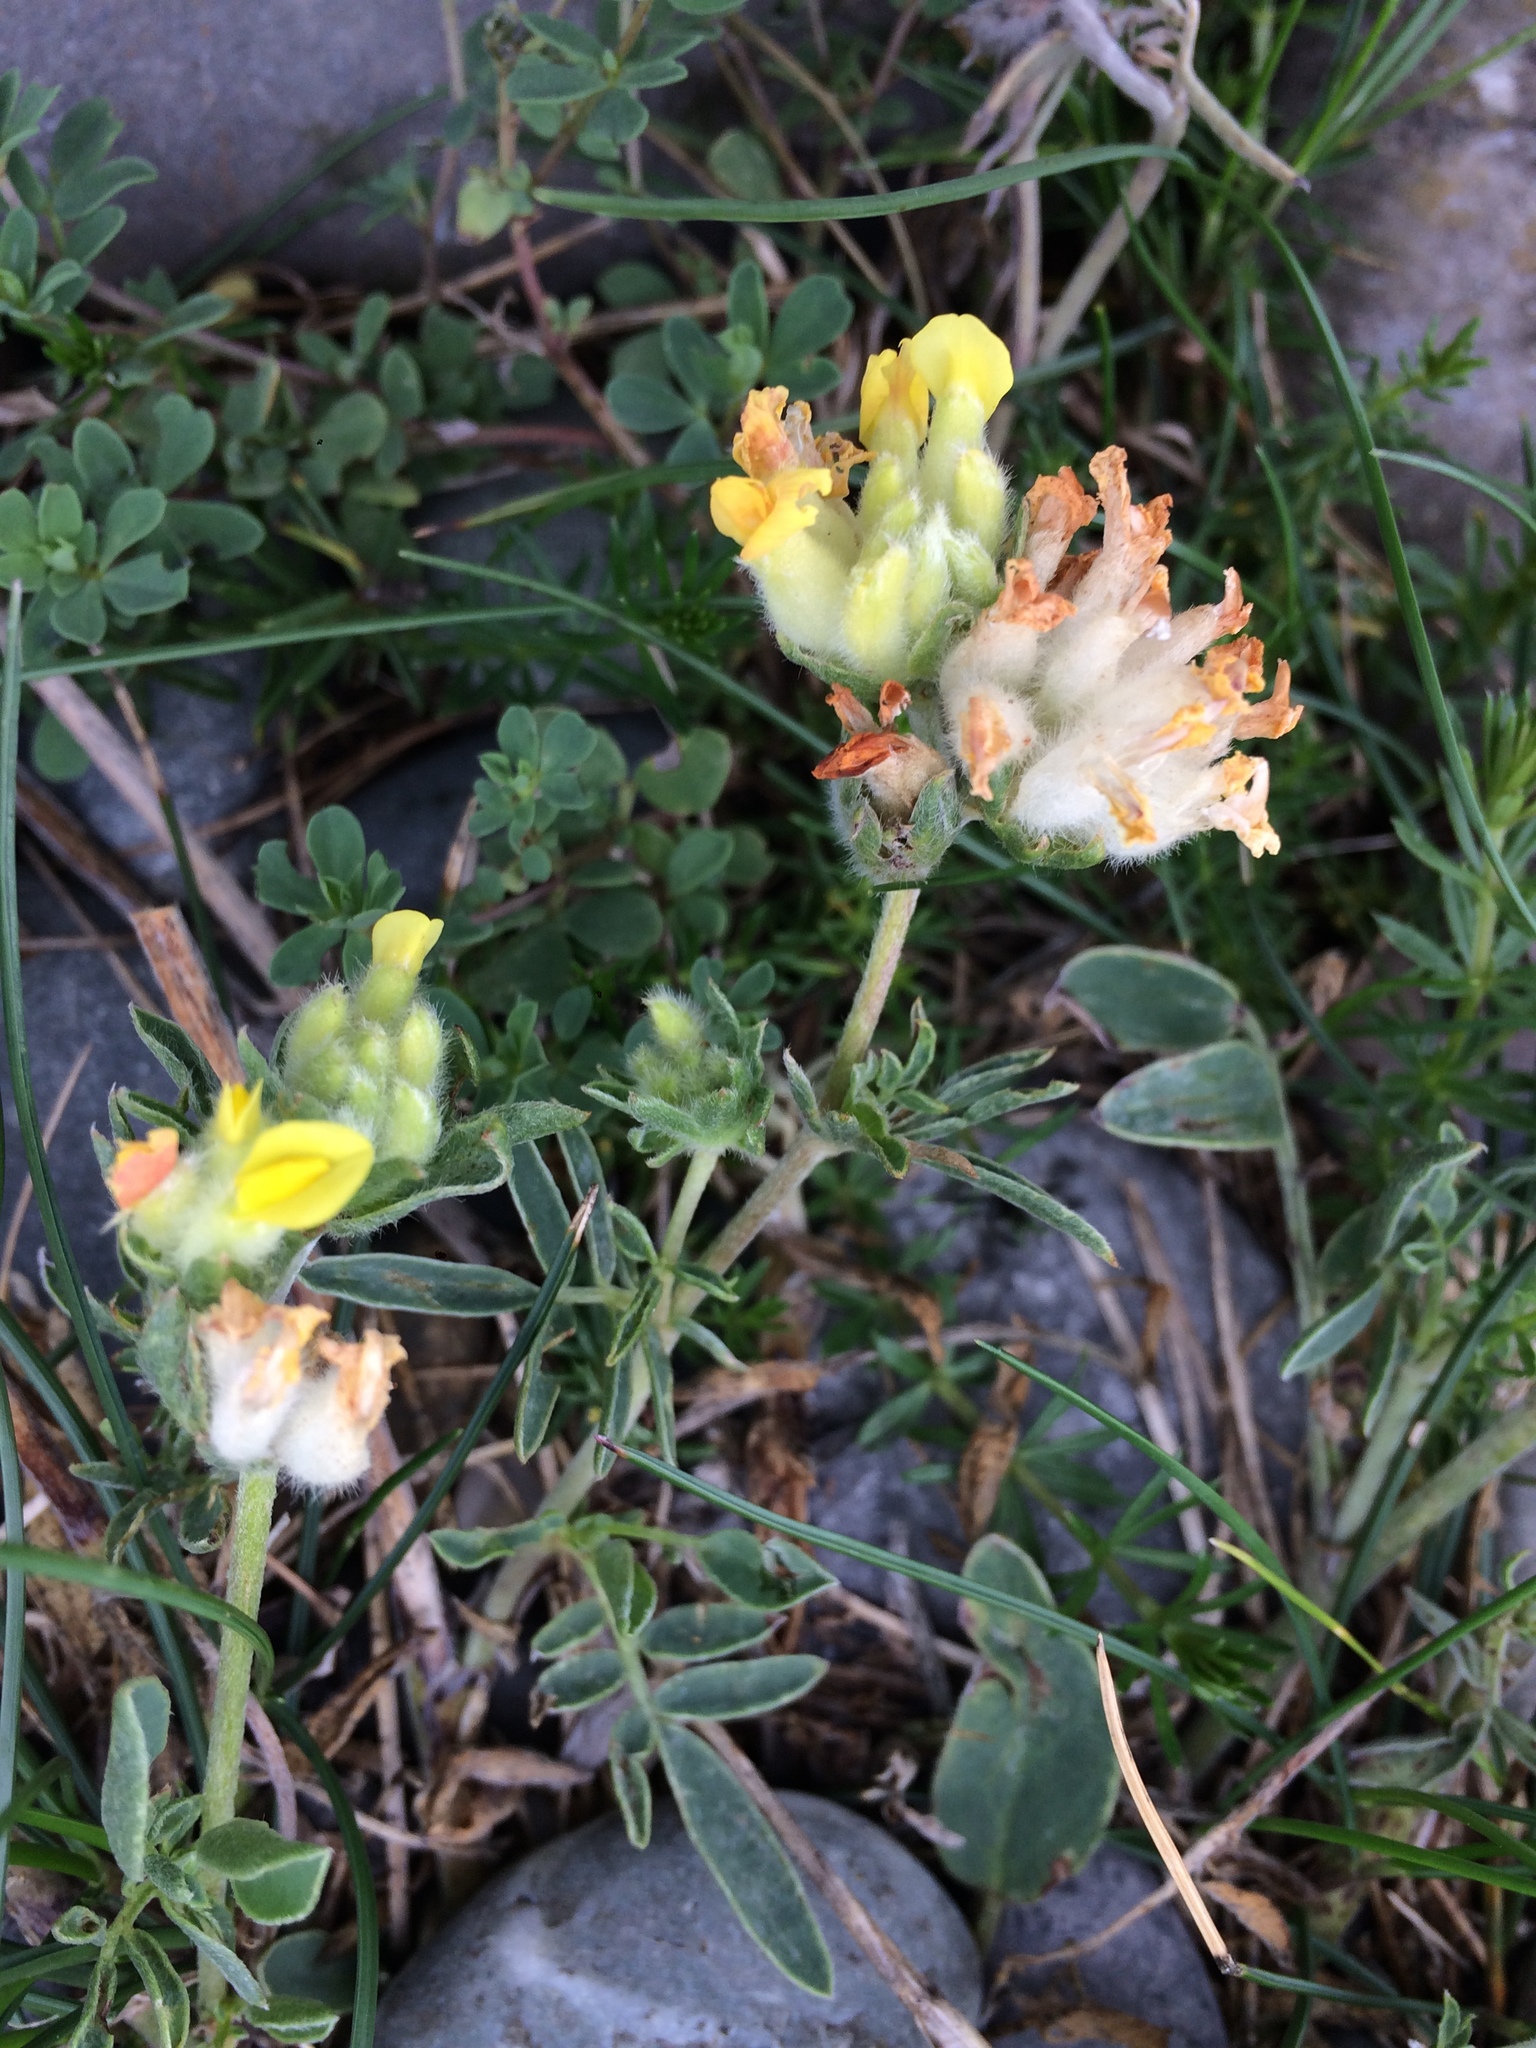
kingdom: Plantae
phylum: Tracheophyta
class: Magnoliopsida
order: Fabales
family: Fabaceae
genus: Anthyllis
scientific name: Anthyllis vulneraria
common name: Kidney vetch
